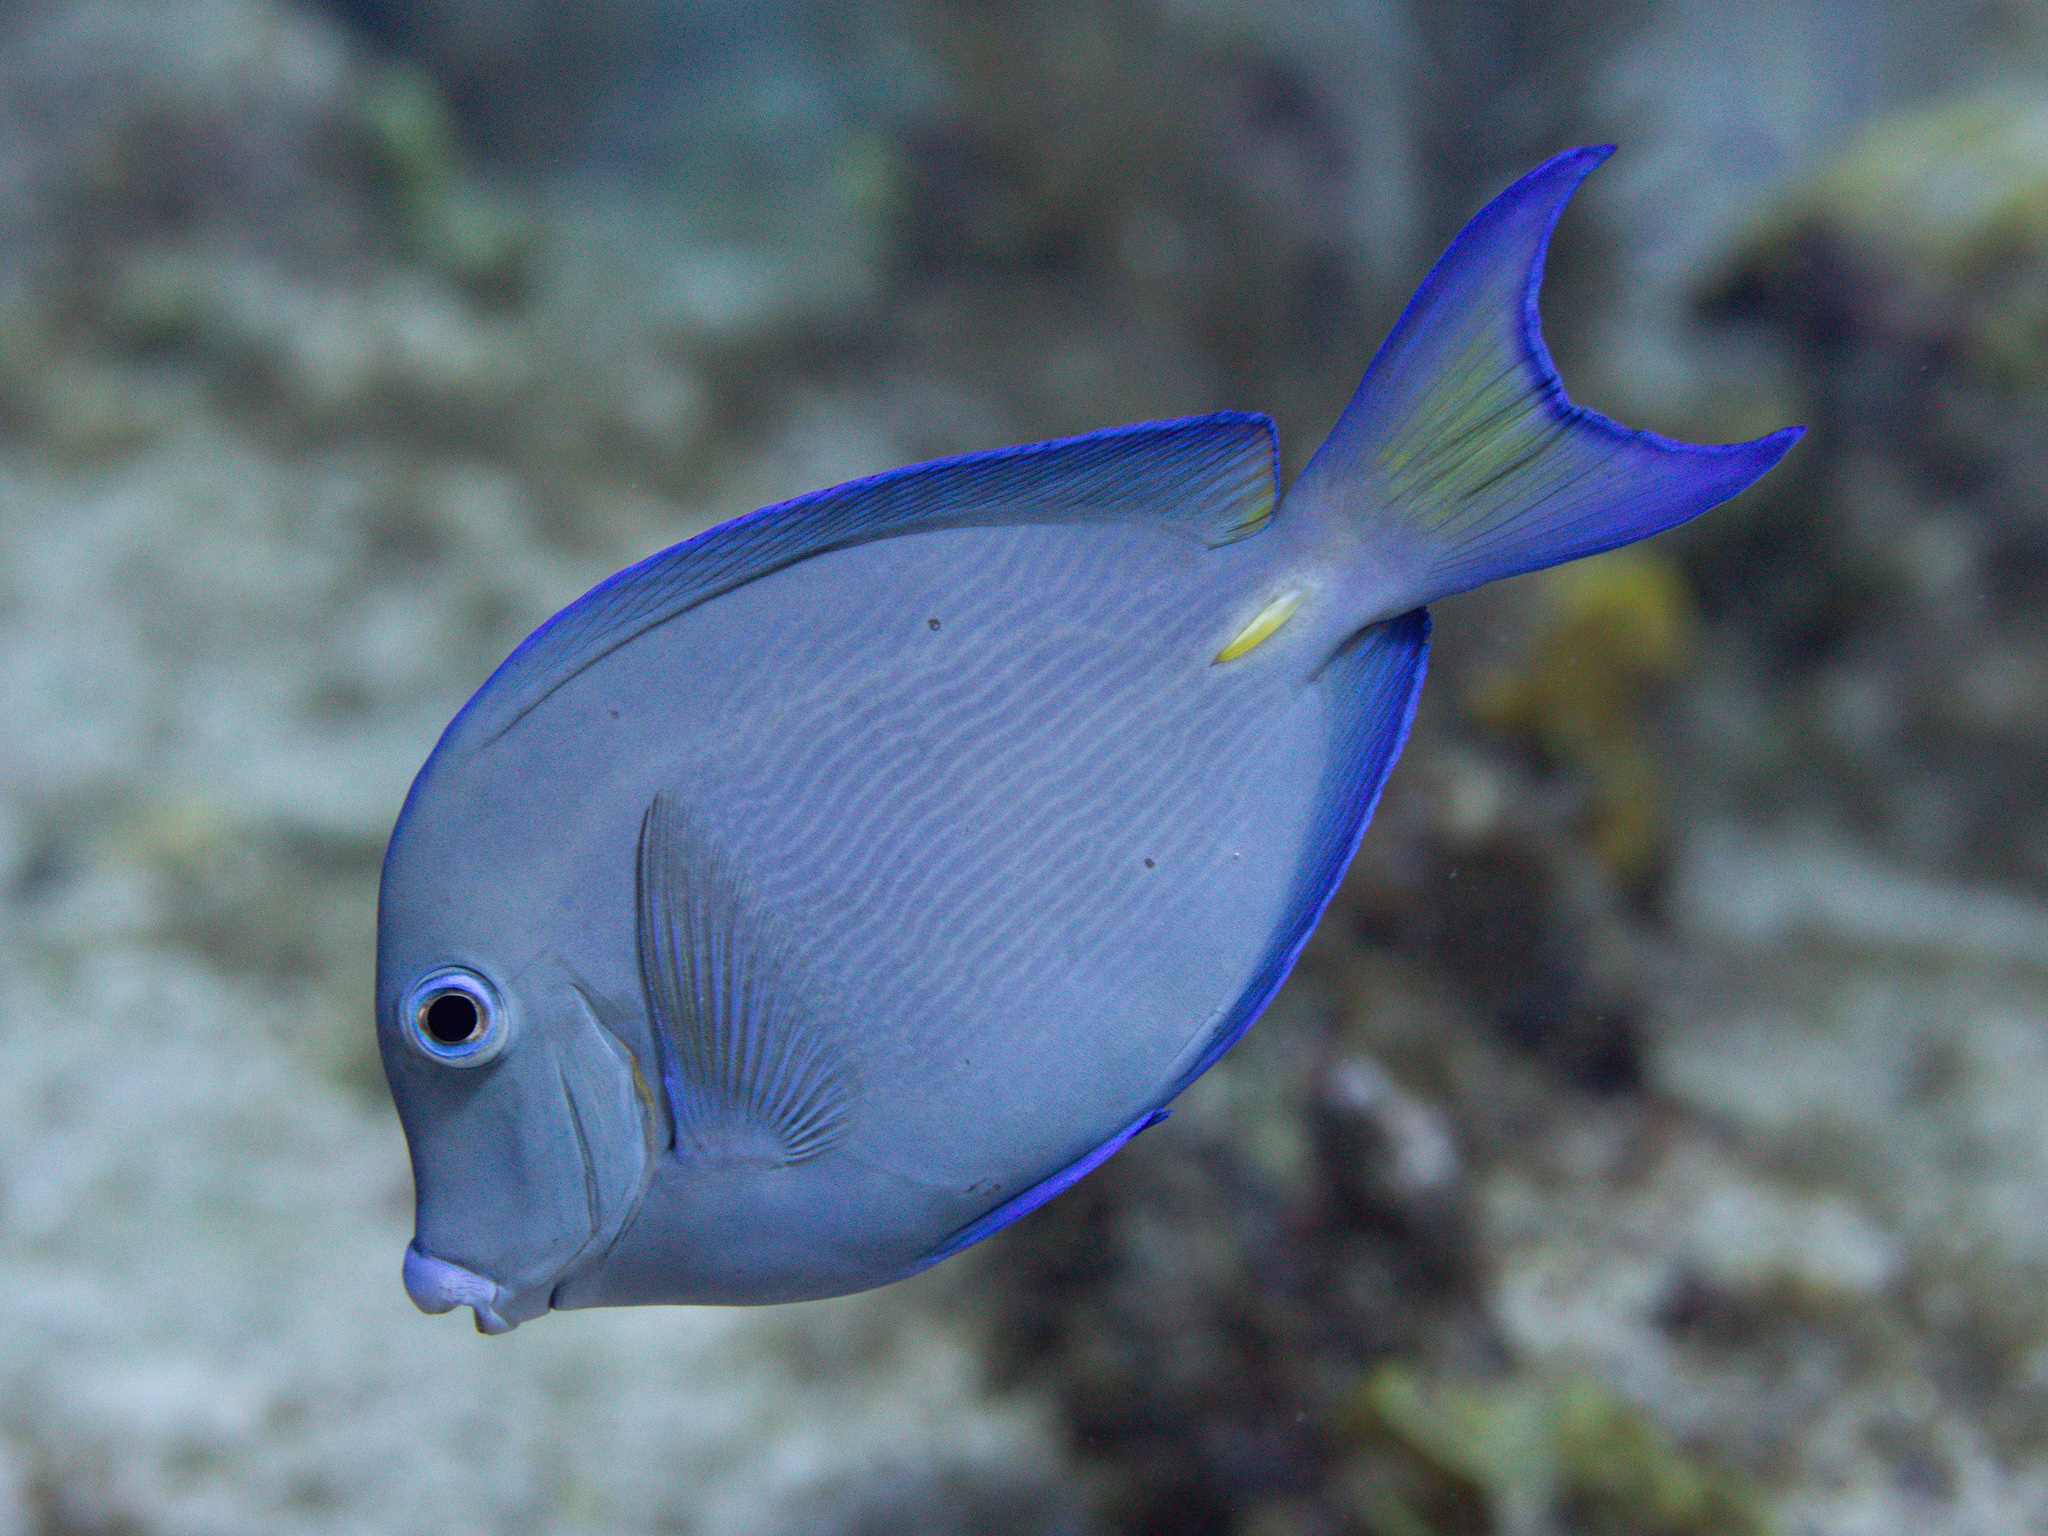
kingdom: Animalia
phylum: Chordata
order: Perciformes
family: Acanthuridae
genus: Acanthurus
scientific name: Acanthurus coeruleus
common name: Blue tang
